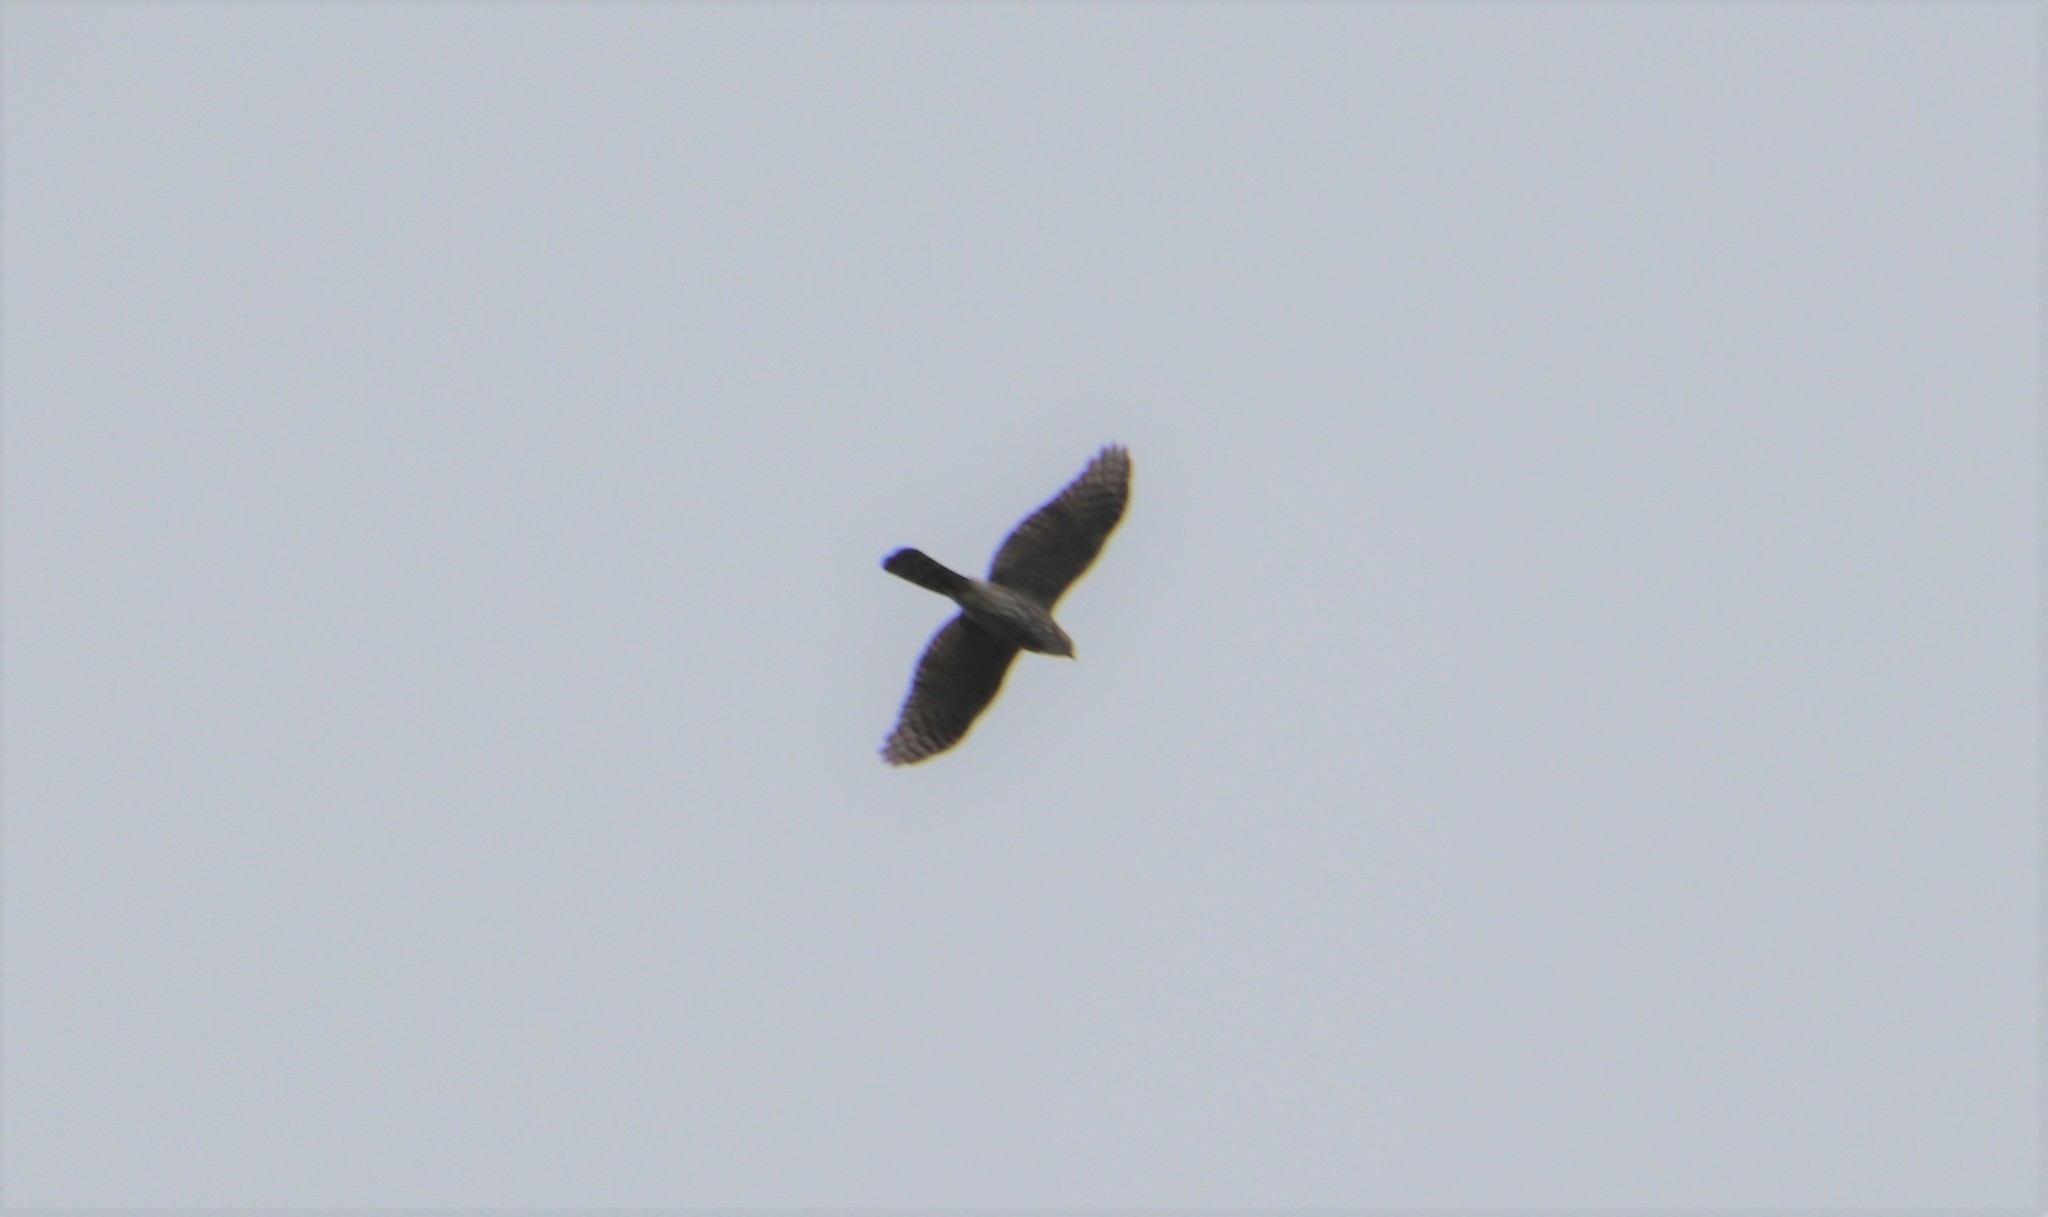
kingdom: Animalia
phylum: Chordata
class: Aves
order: Accipitriformes
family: Accipitridae
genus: Accipiter
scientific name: Accipiter cooperii
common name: Cooper's hawk
